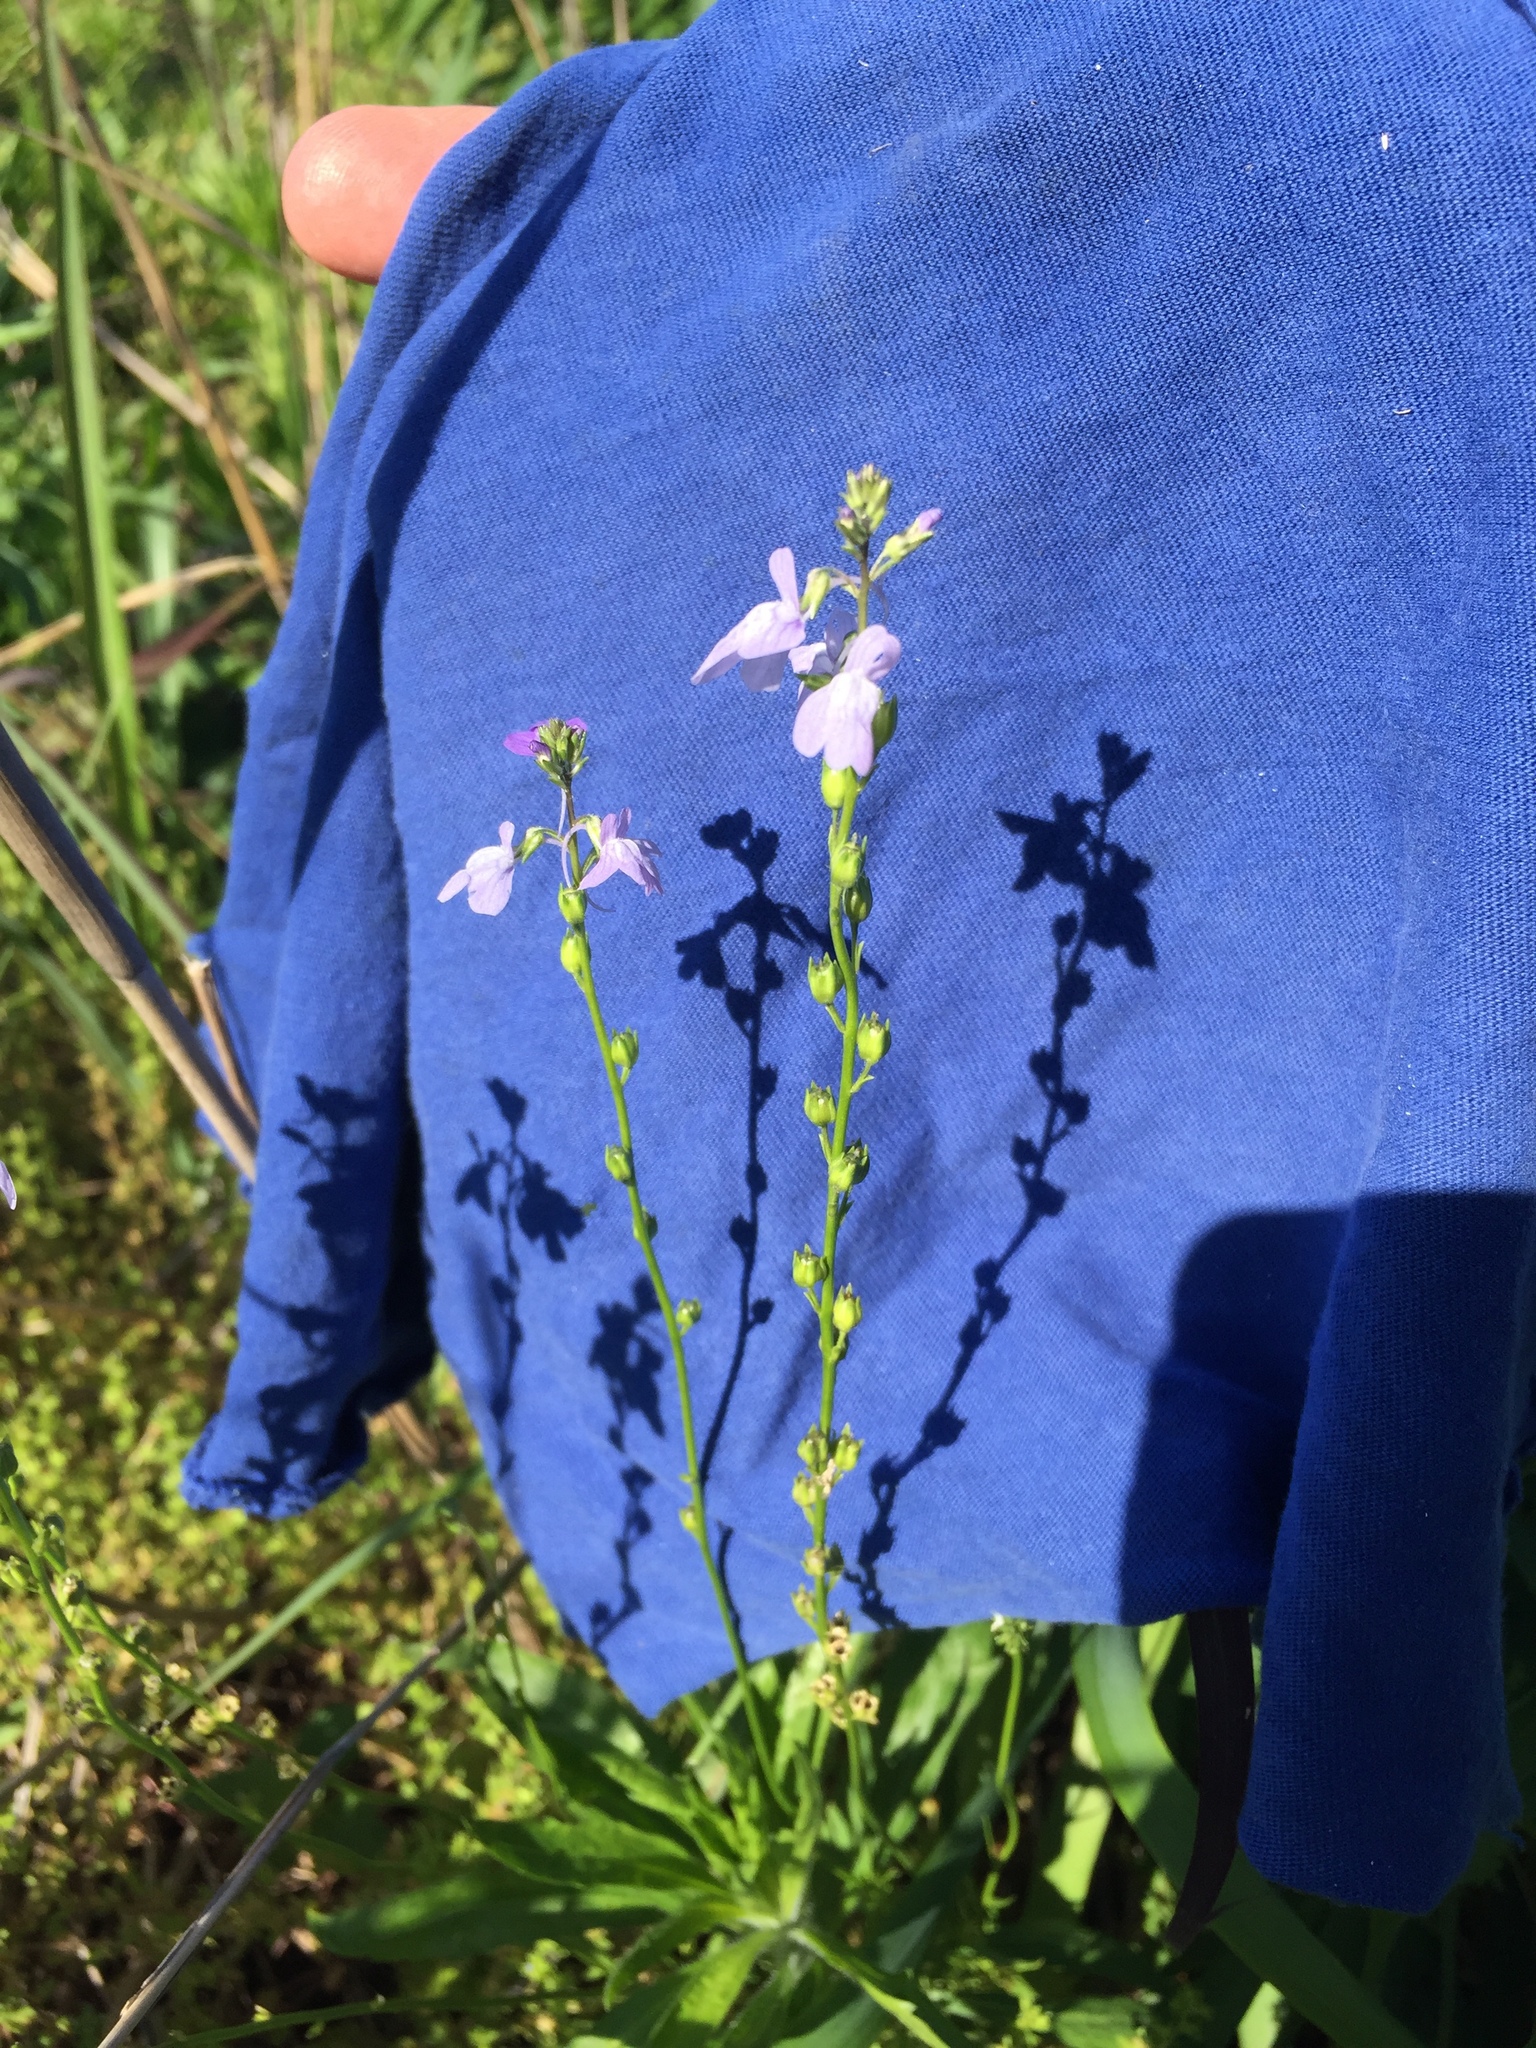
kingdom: Plantae
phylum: Tracheophyta
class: Magnoliopsida
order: Lamiales
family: Plantaginaceae
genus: Nuttallanthus
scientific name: Nuttallanthus texanus
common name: Texas toadflax
